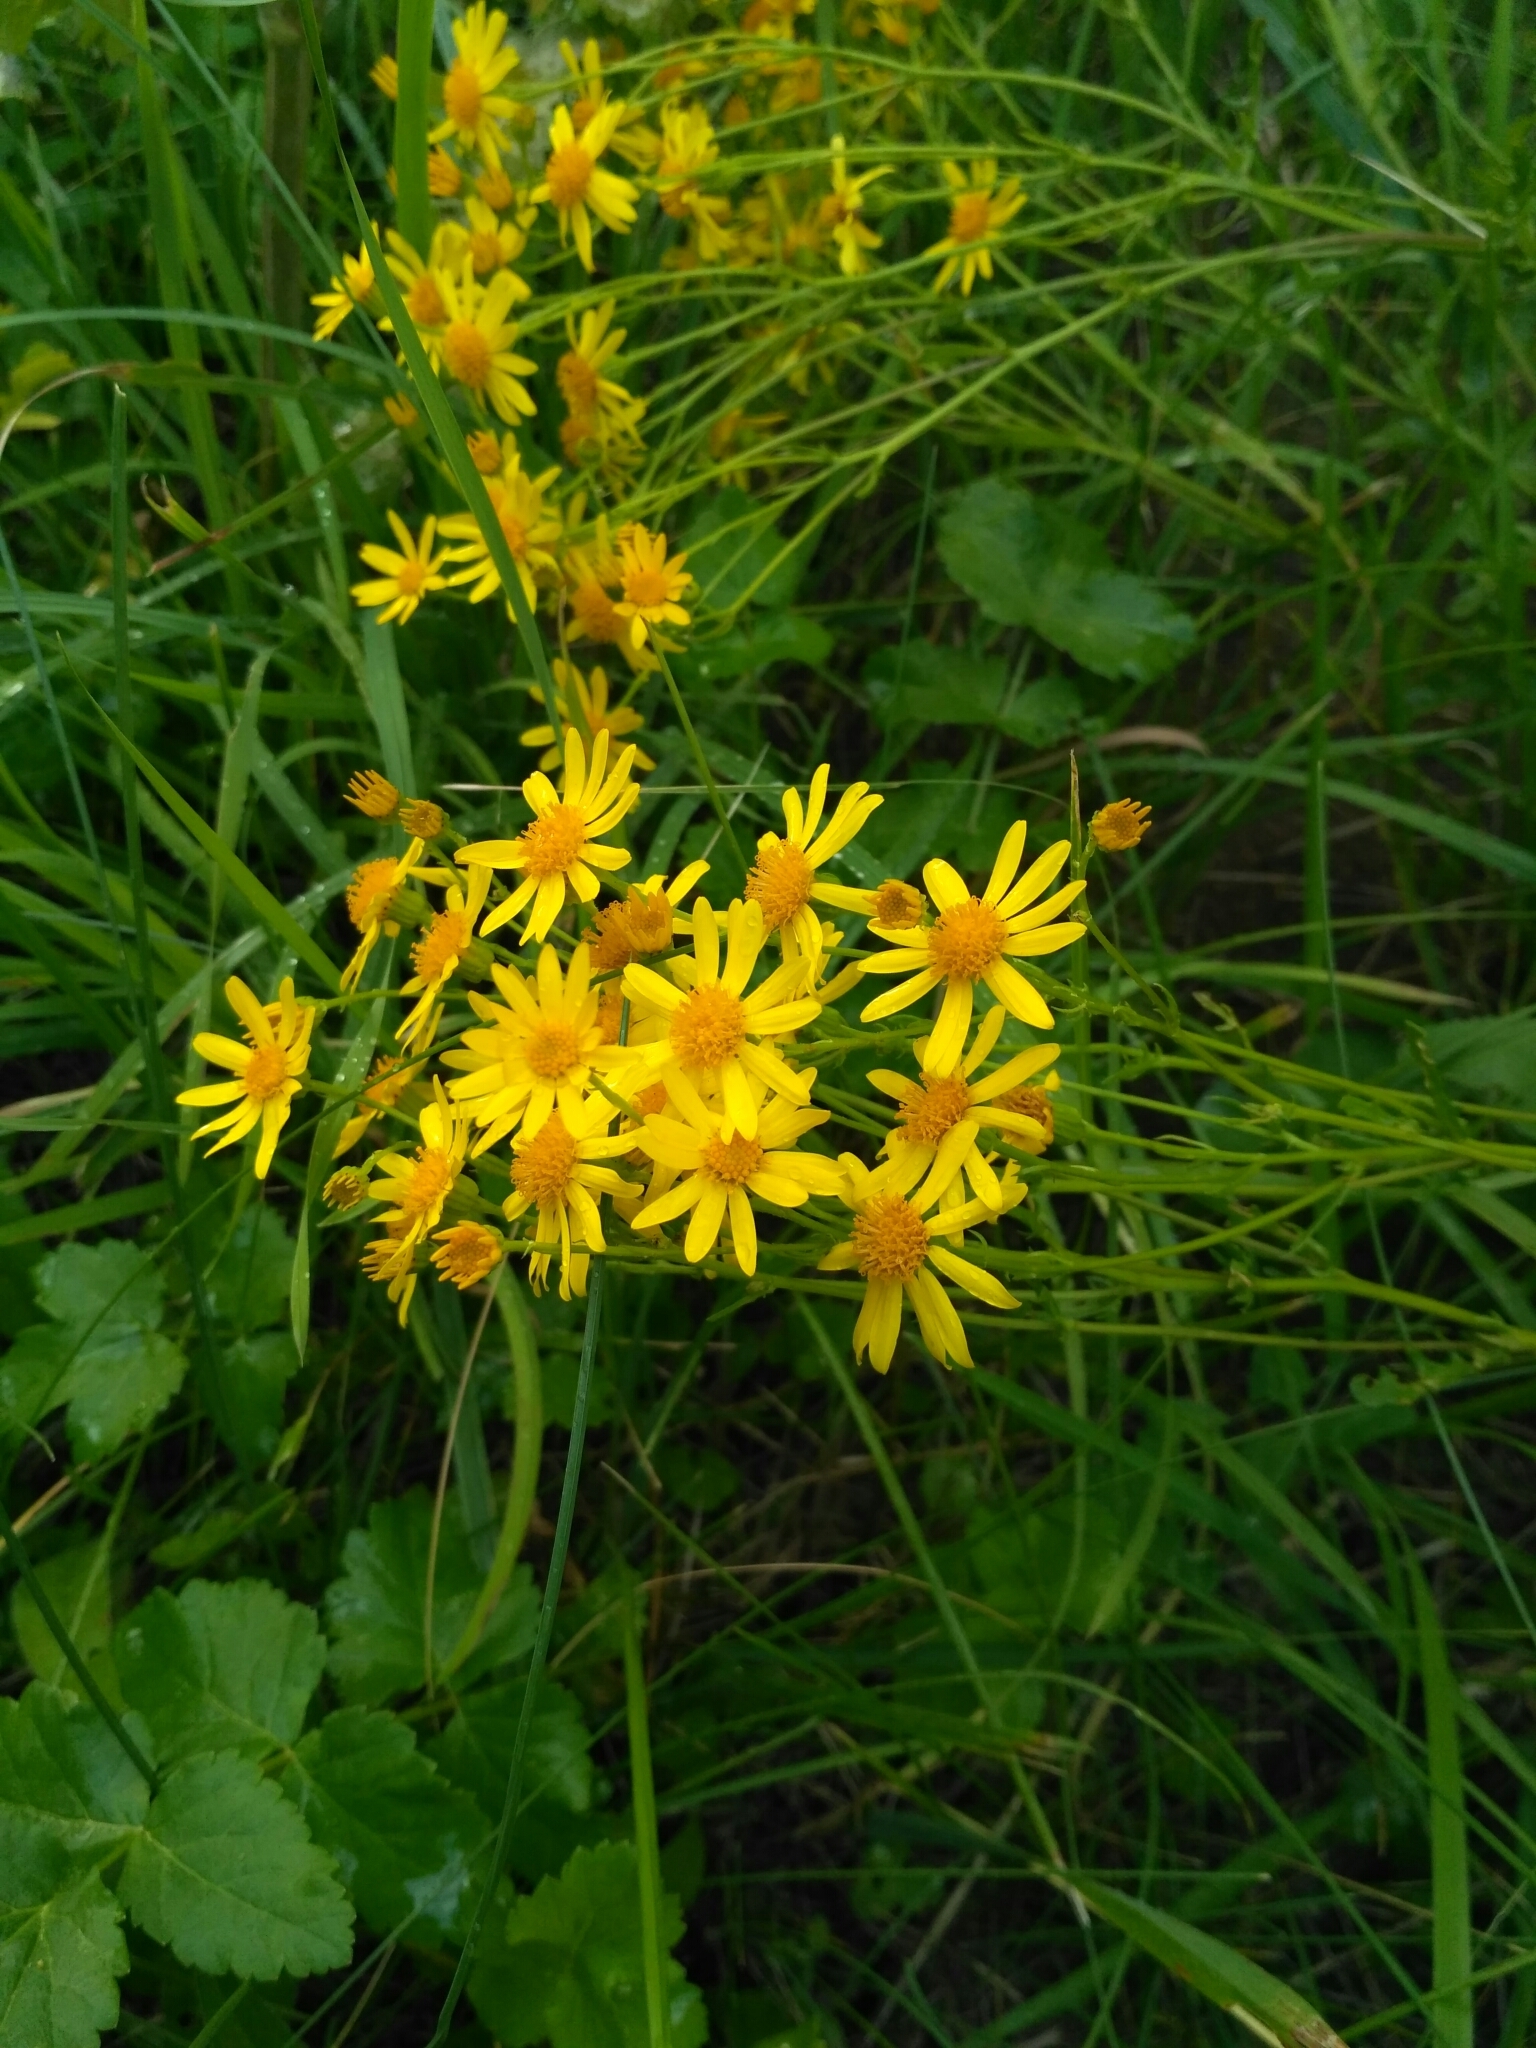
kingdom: Plantae
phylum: Tracheophyta
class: Magnoliopsida
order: Asterales
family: Asteraceae
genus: Jacobaea
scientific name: Jacobaea vulgaris
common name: Stinking willie
